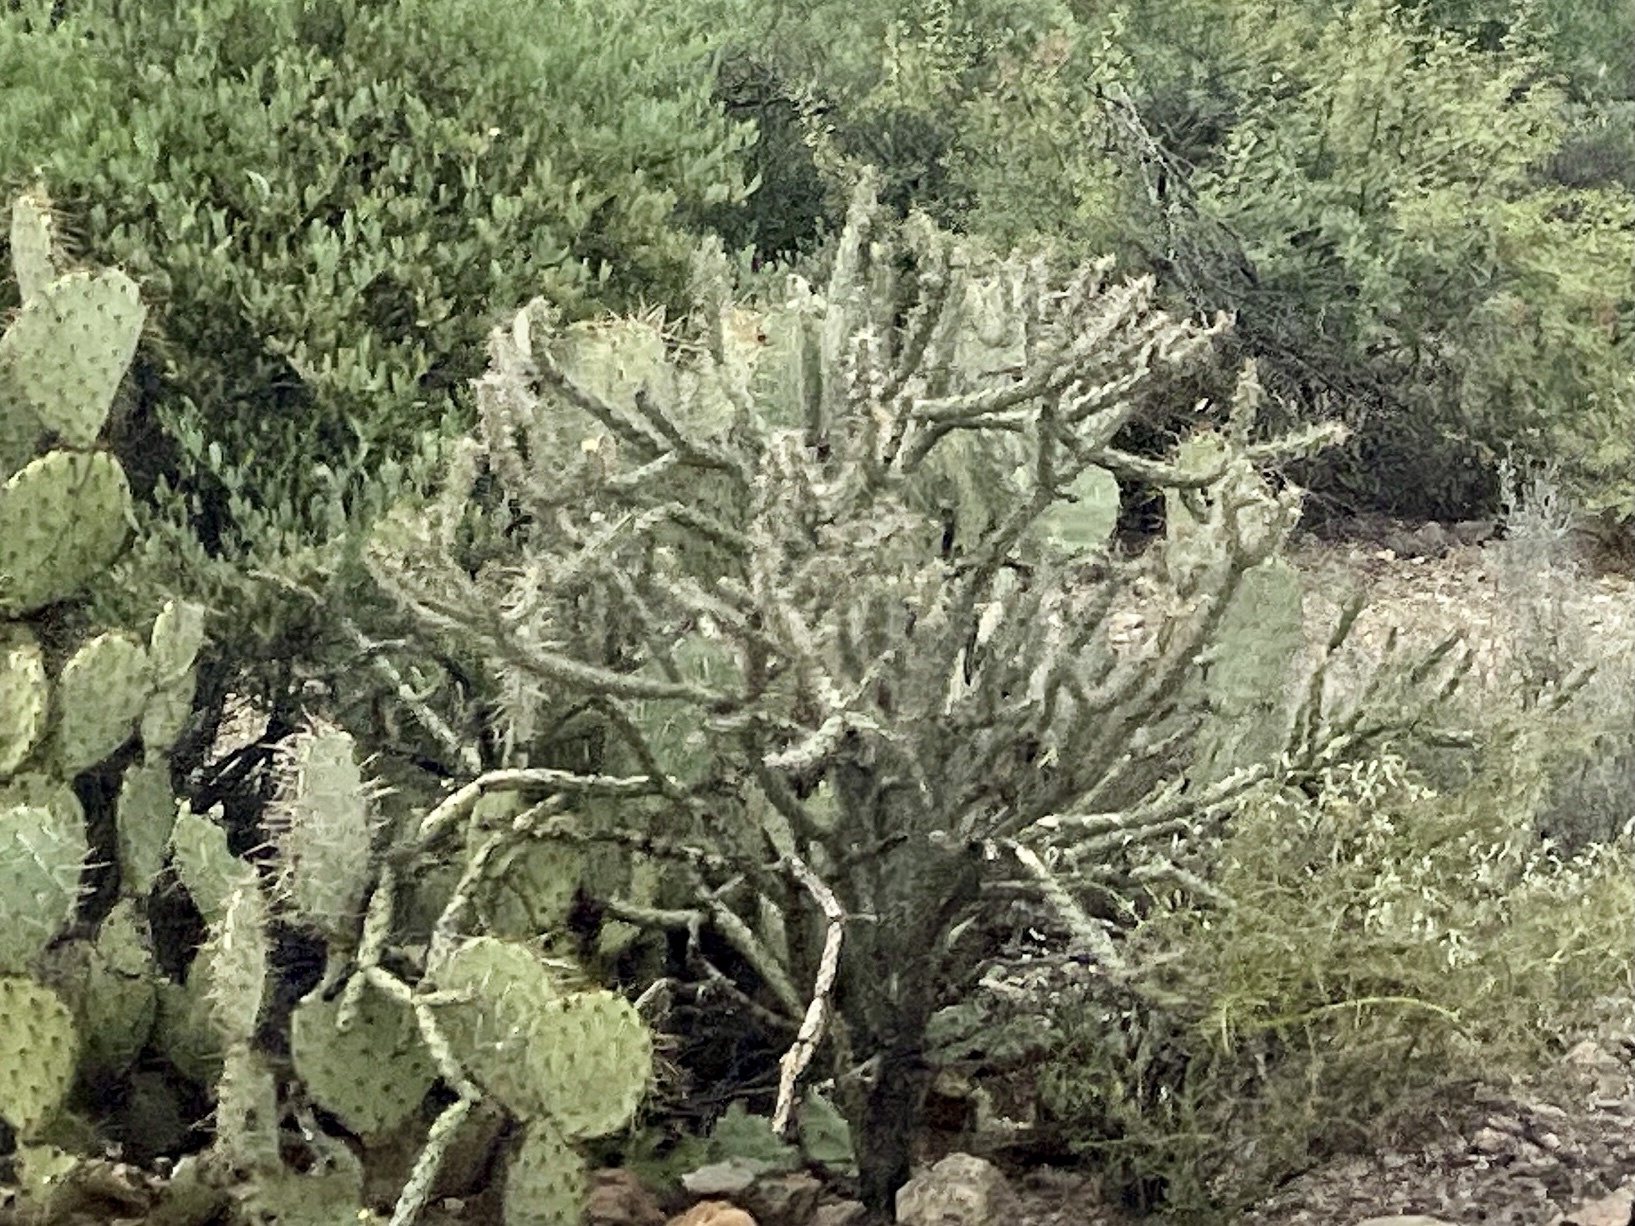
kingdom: Plantae
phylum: Tracheophyta
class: Magnoliopsida
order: Caryophyllales
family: Cactaceae
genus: Cylindropuntia
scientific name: Cylindropuntia acanthocarpa
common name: Buckhorn cholla
